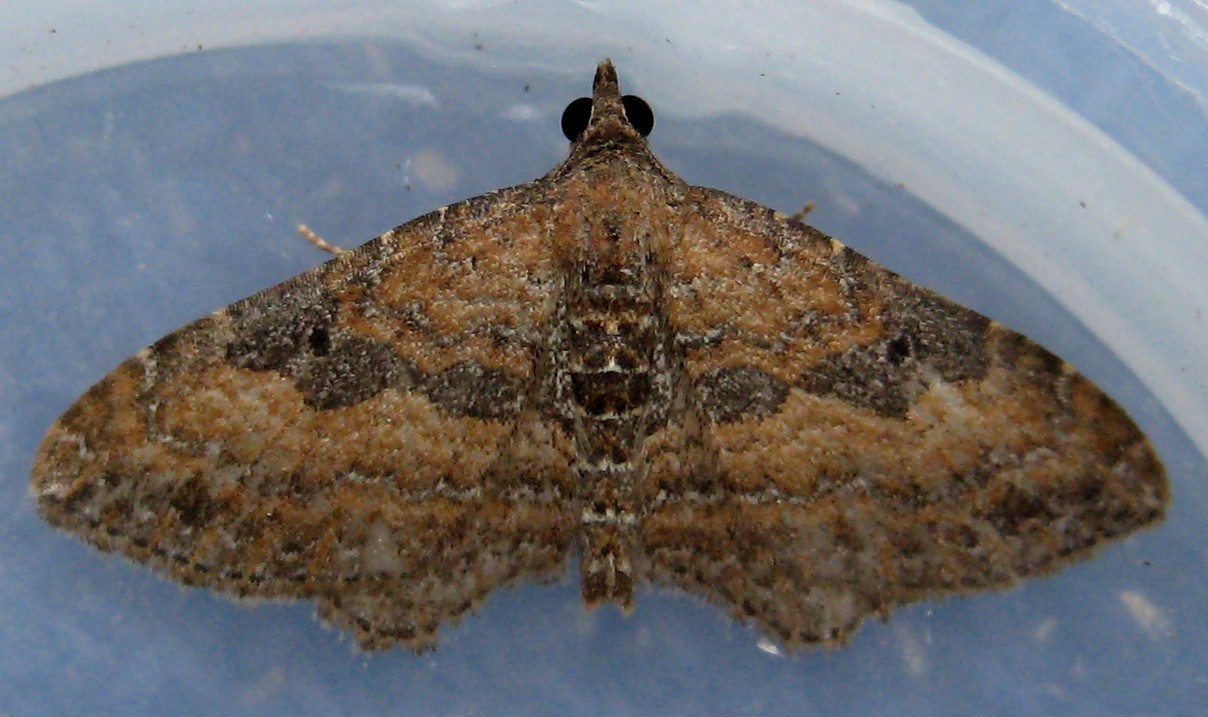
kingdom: Animalia
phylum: Arthropoda
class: Insecta
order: Lepidoptera
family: Geometridae
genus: Orthonama
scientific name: Orthonama obstipata
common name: The gem
